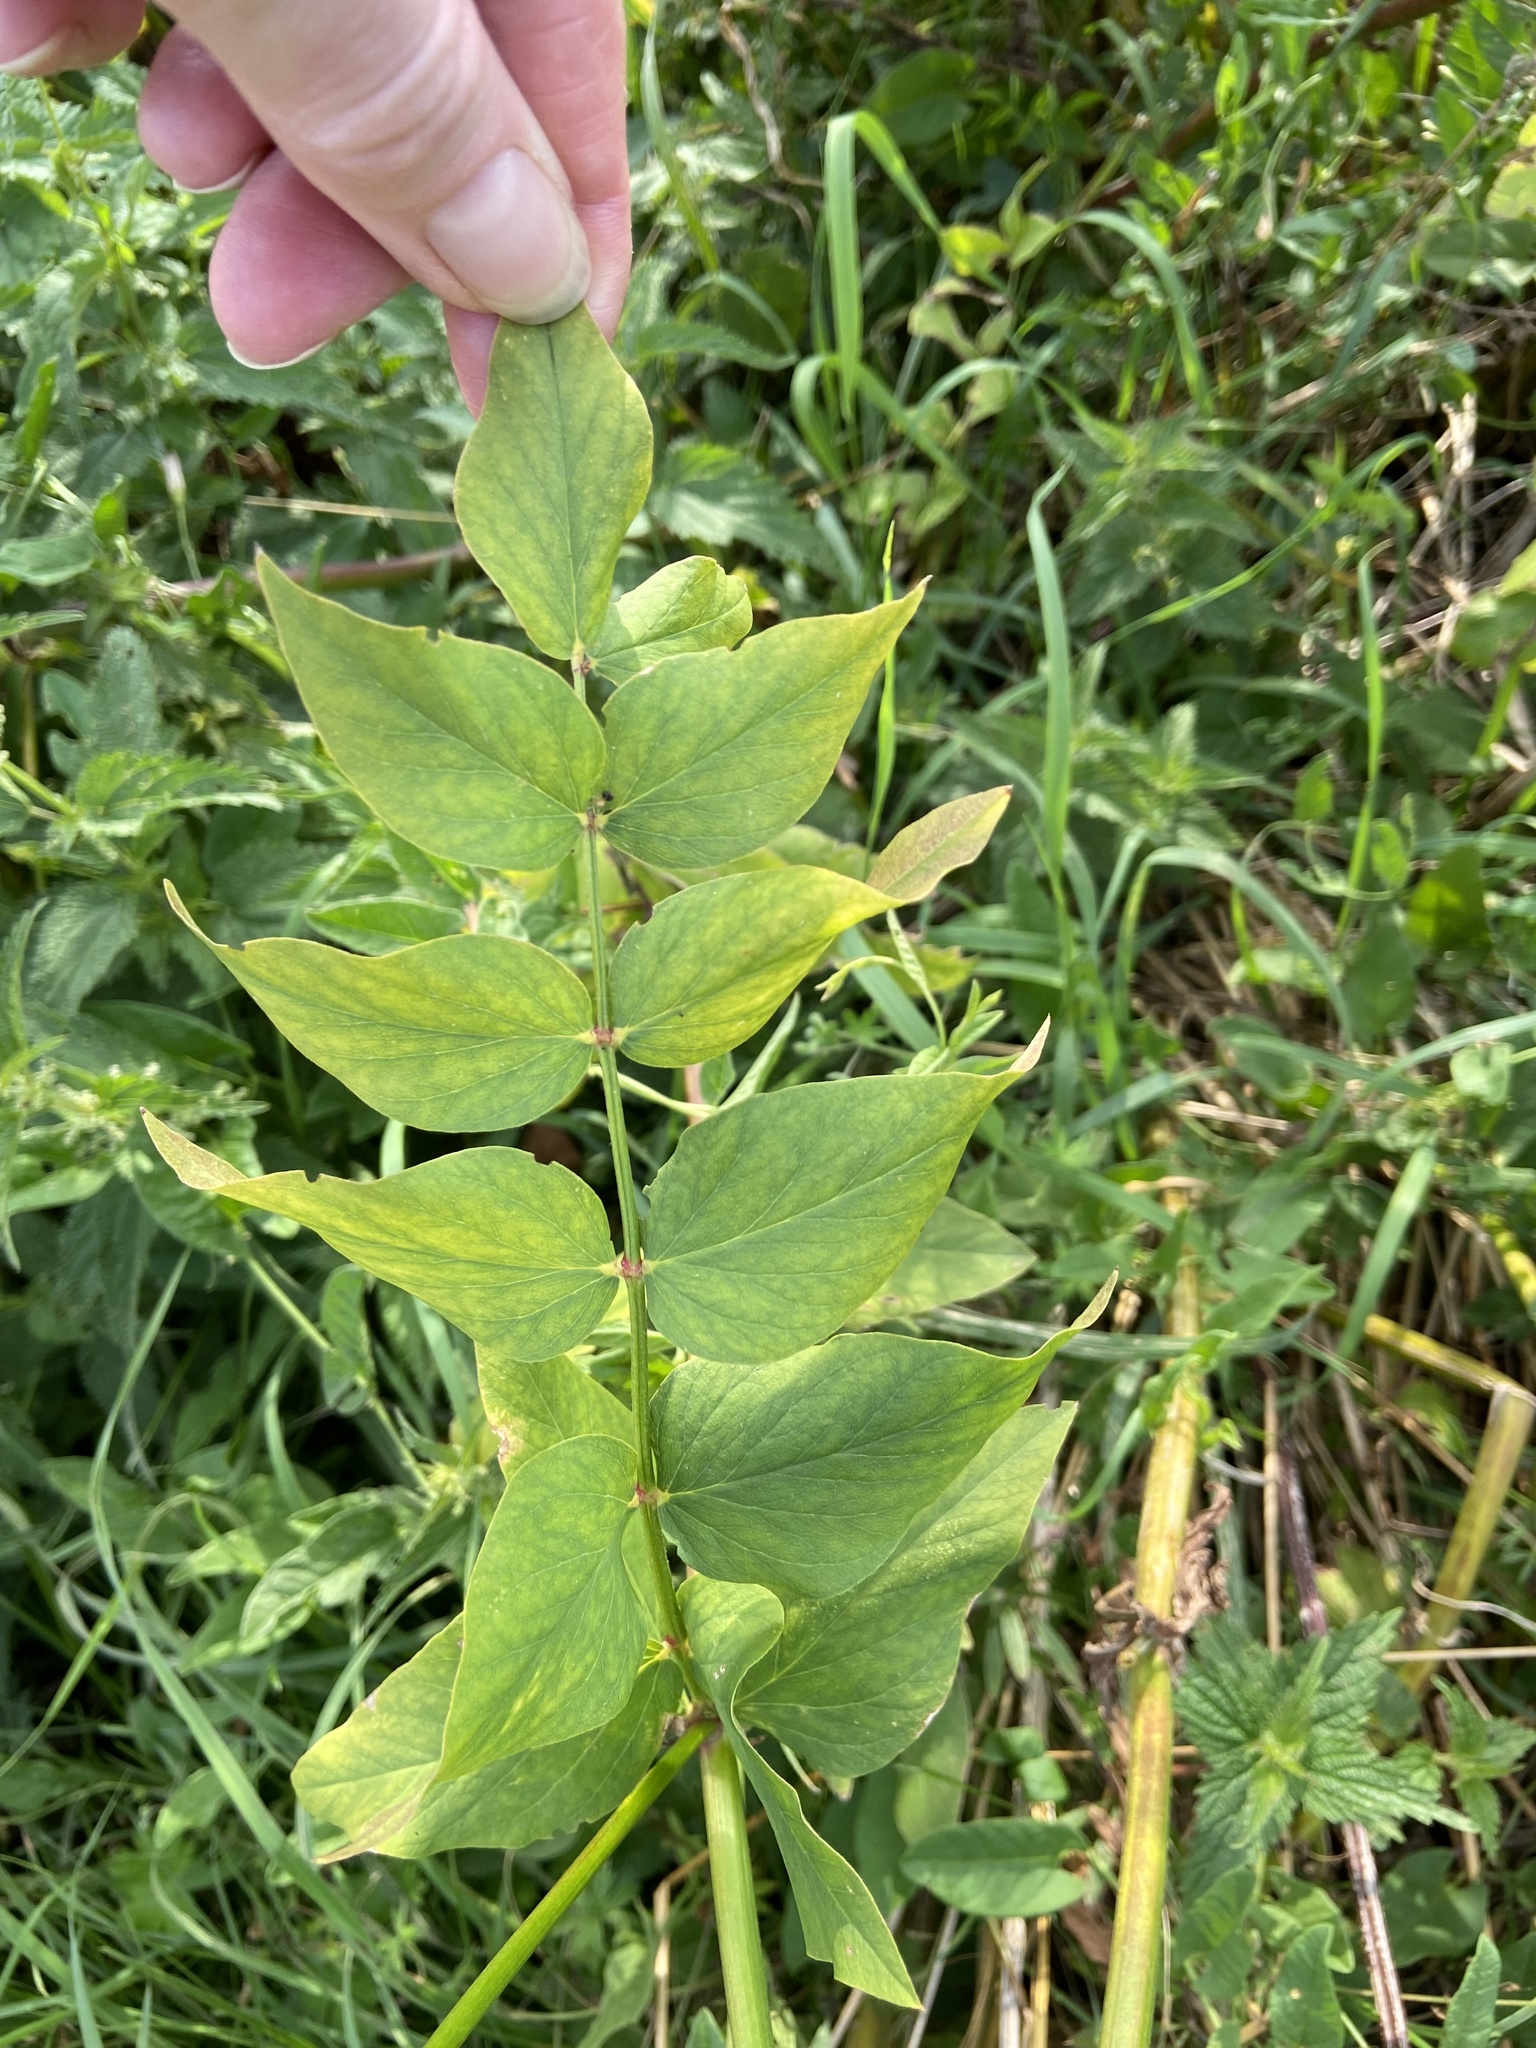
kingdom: Plantae
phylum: Tracheophyta
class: Magnoliopsida
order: Fabales
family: Fabaceae
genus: Galega
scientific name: Galega orientalis
